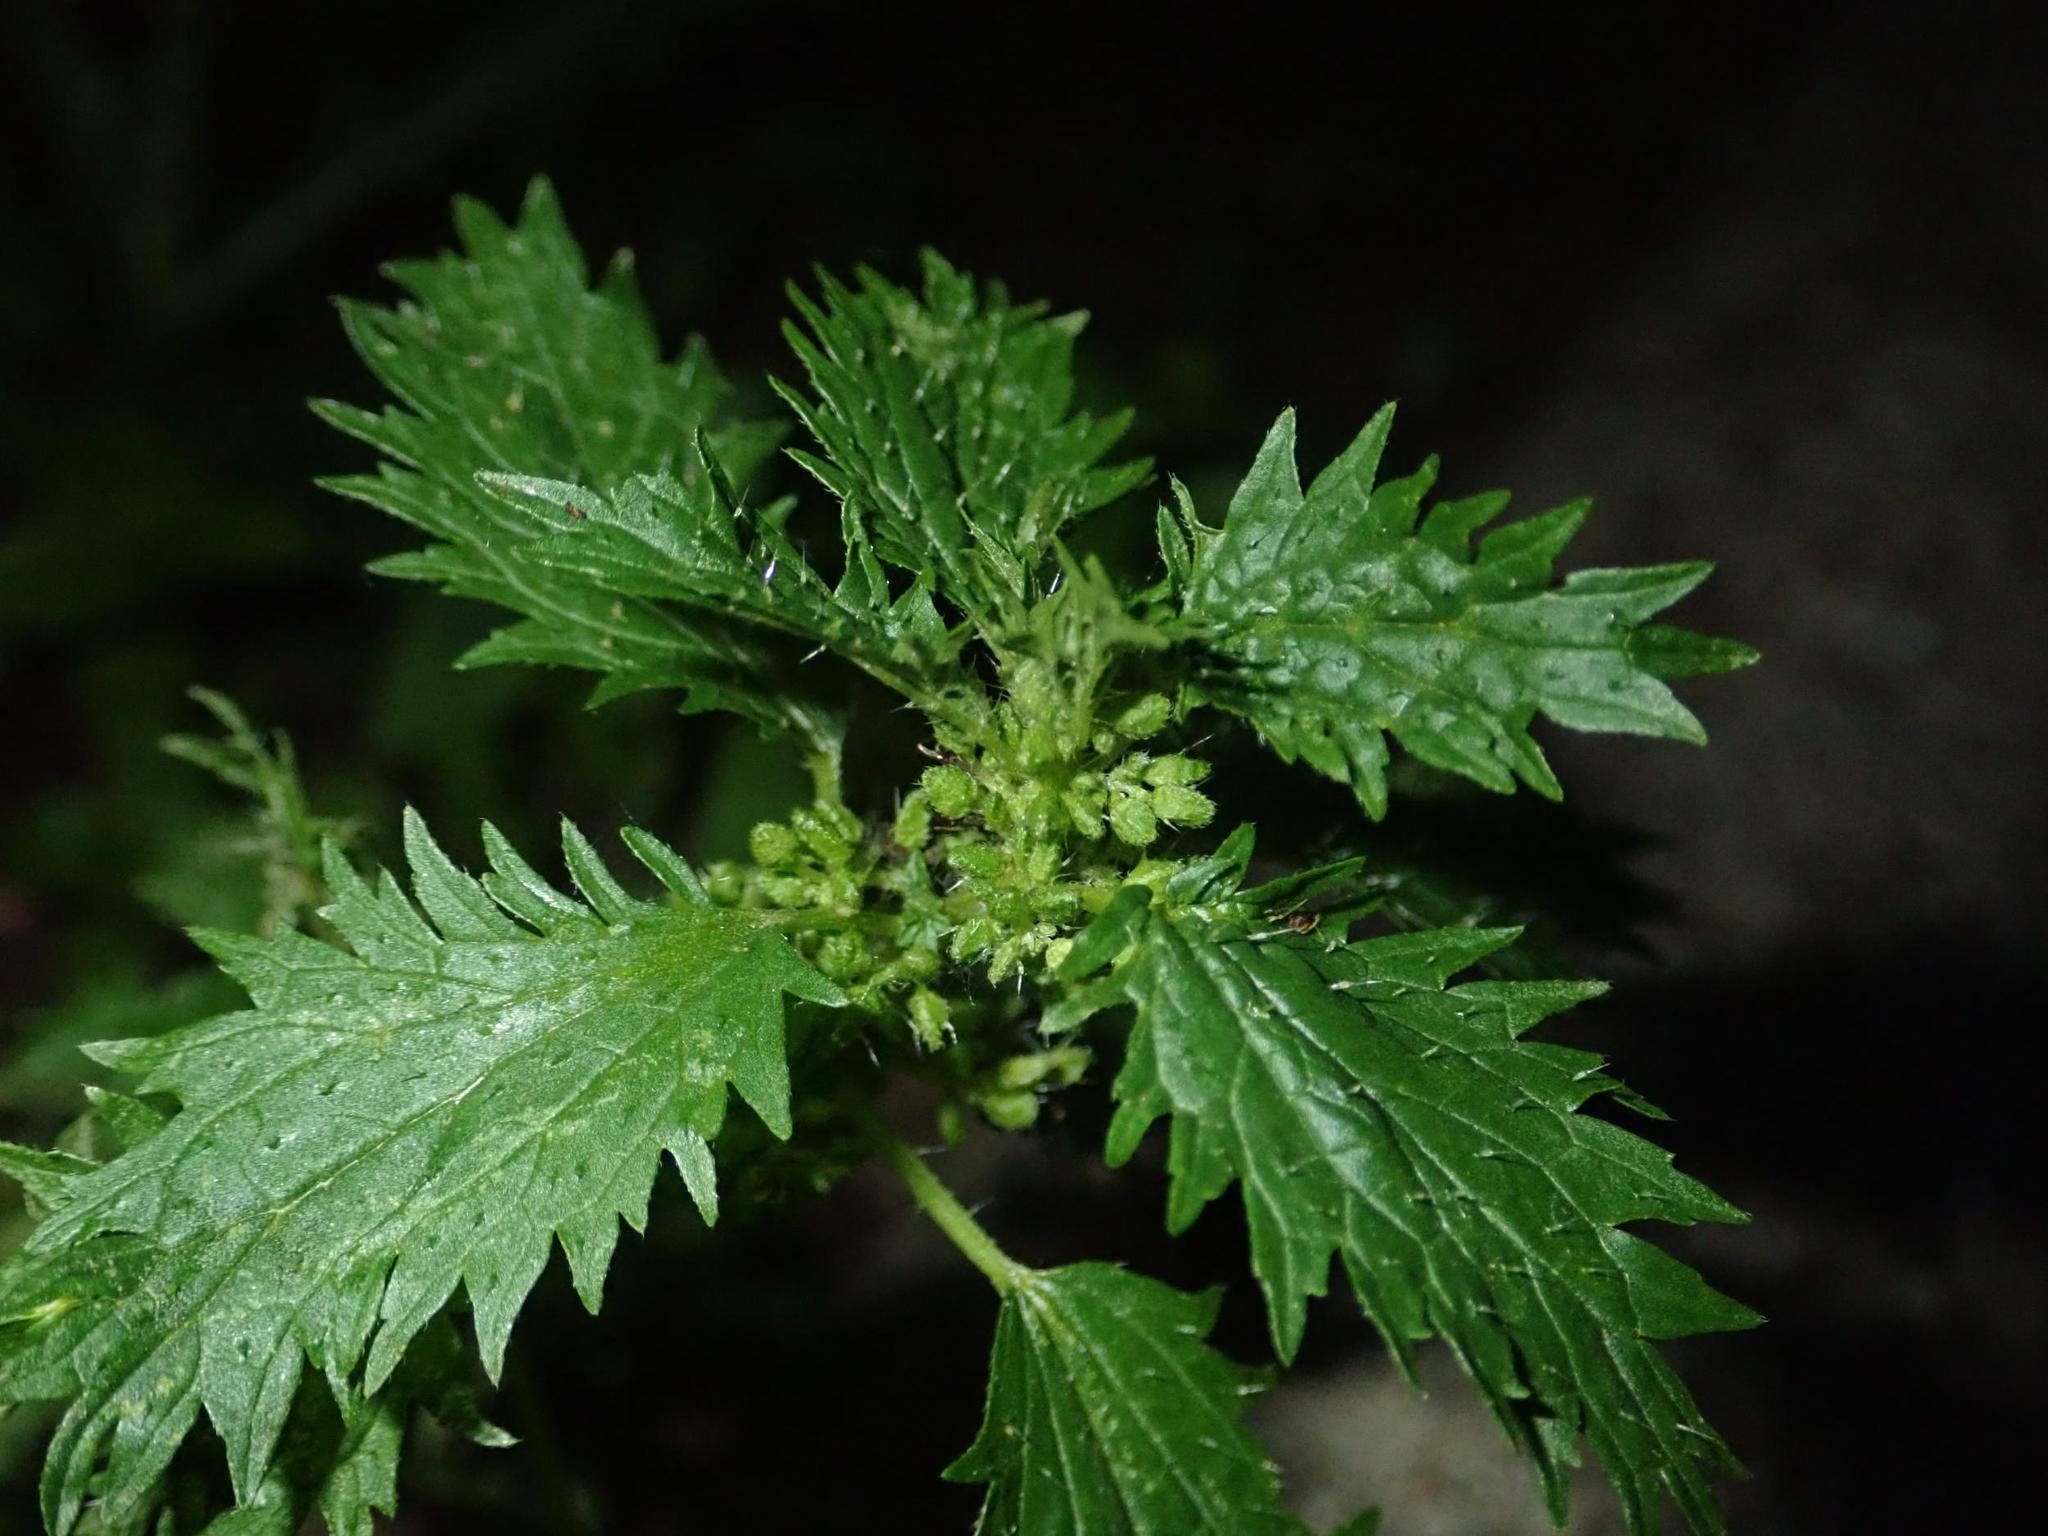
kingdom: Plantae
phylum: Tracheophyta
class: Magnoliopsida
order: Rosales
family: Urticaceae
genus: Urtica
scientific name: Urtica urens
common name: Dwarf nettle
